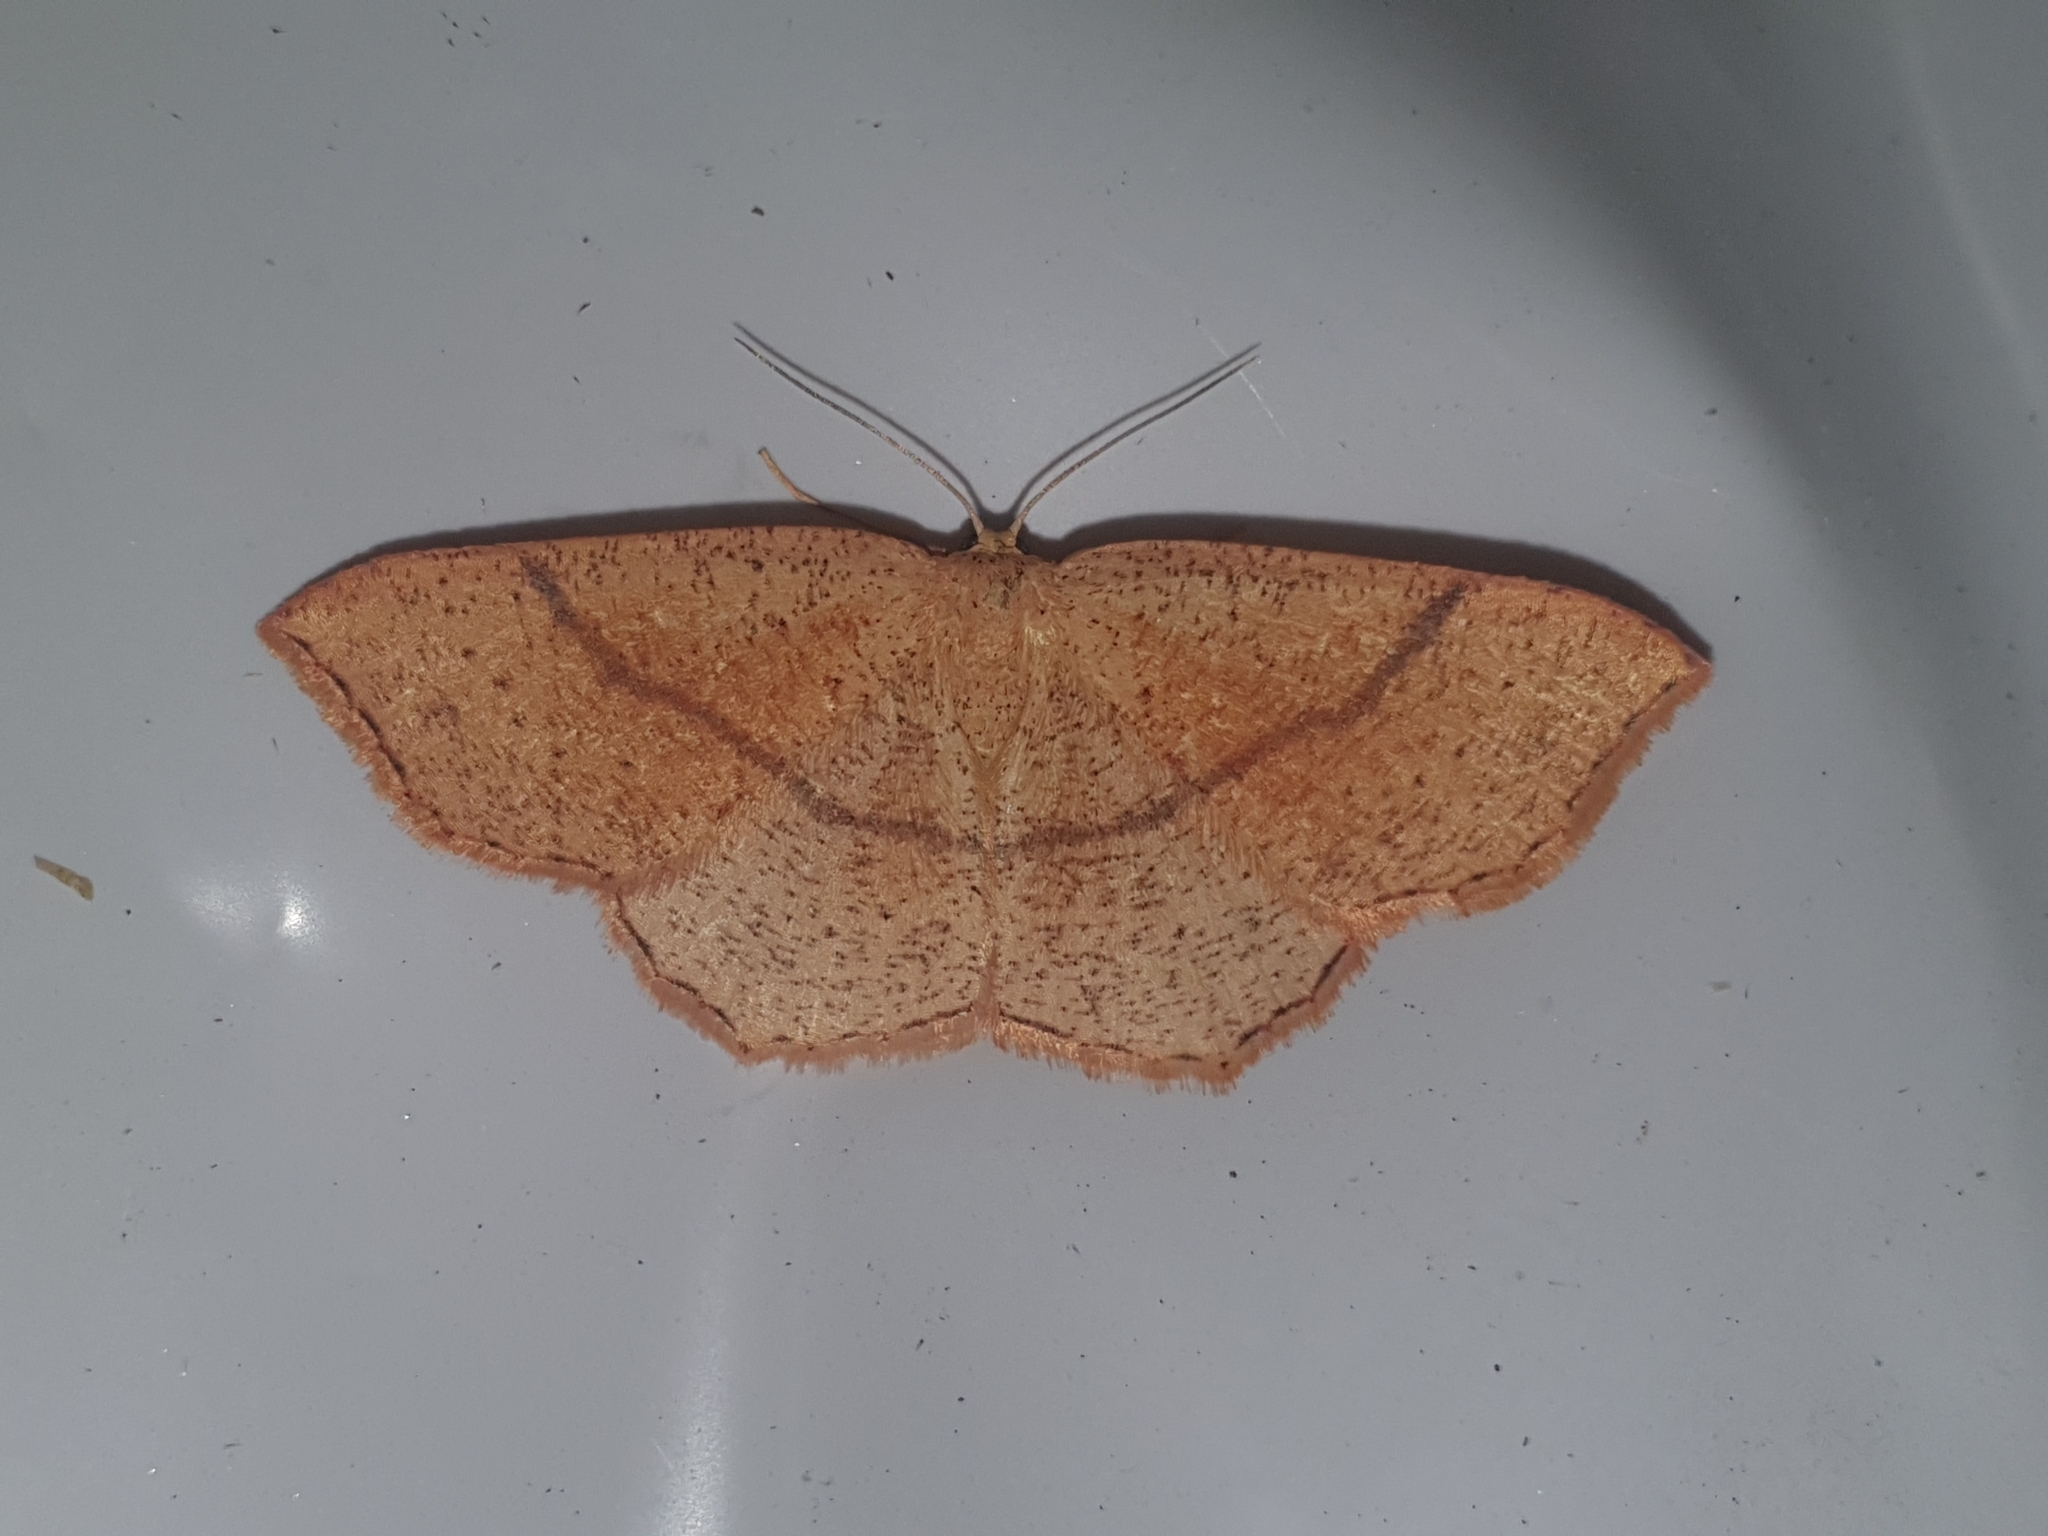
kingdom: Animalia
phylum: Arthropoda
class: Insecta
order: Lepidoptera
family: Geometridae
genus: Cyclophora
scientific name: Cyclophora suppunctaria
